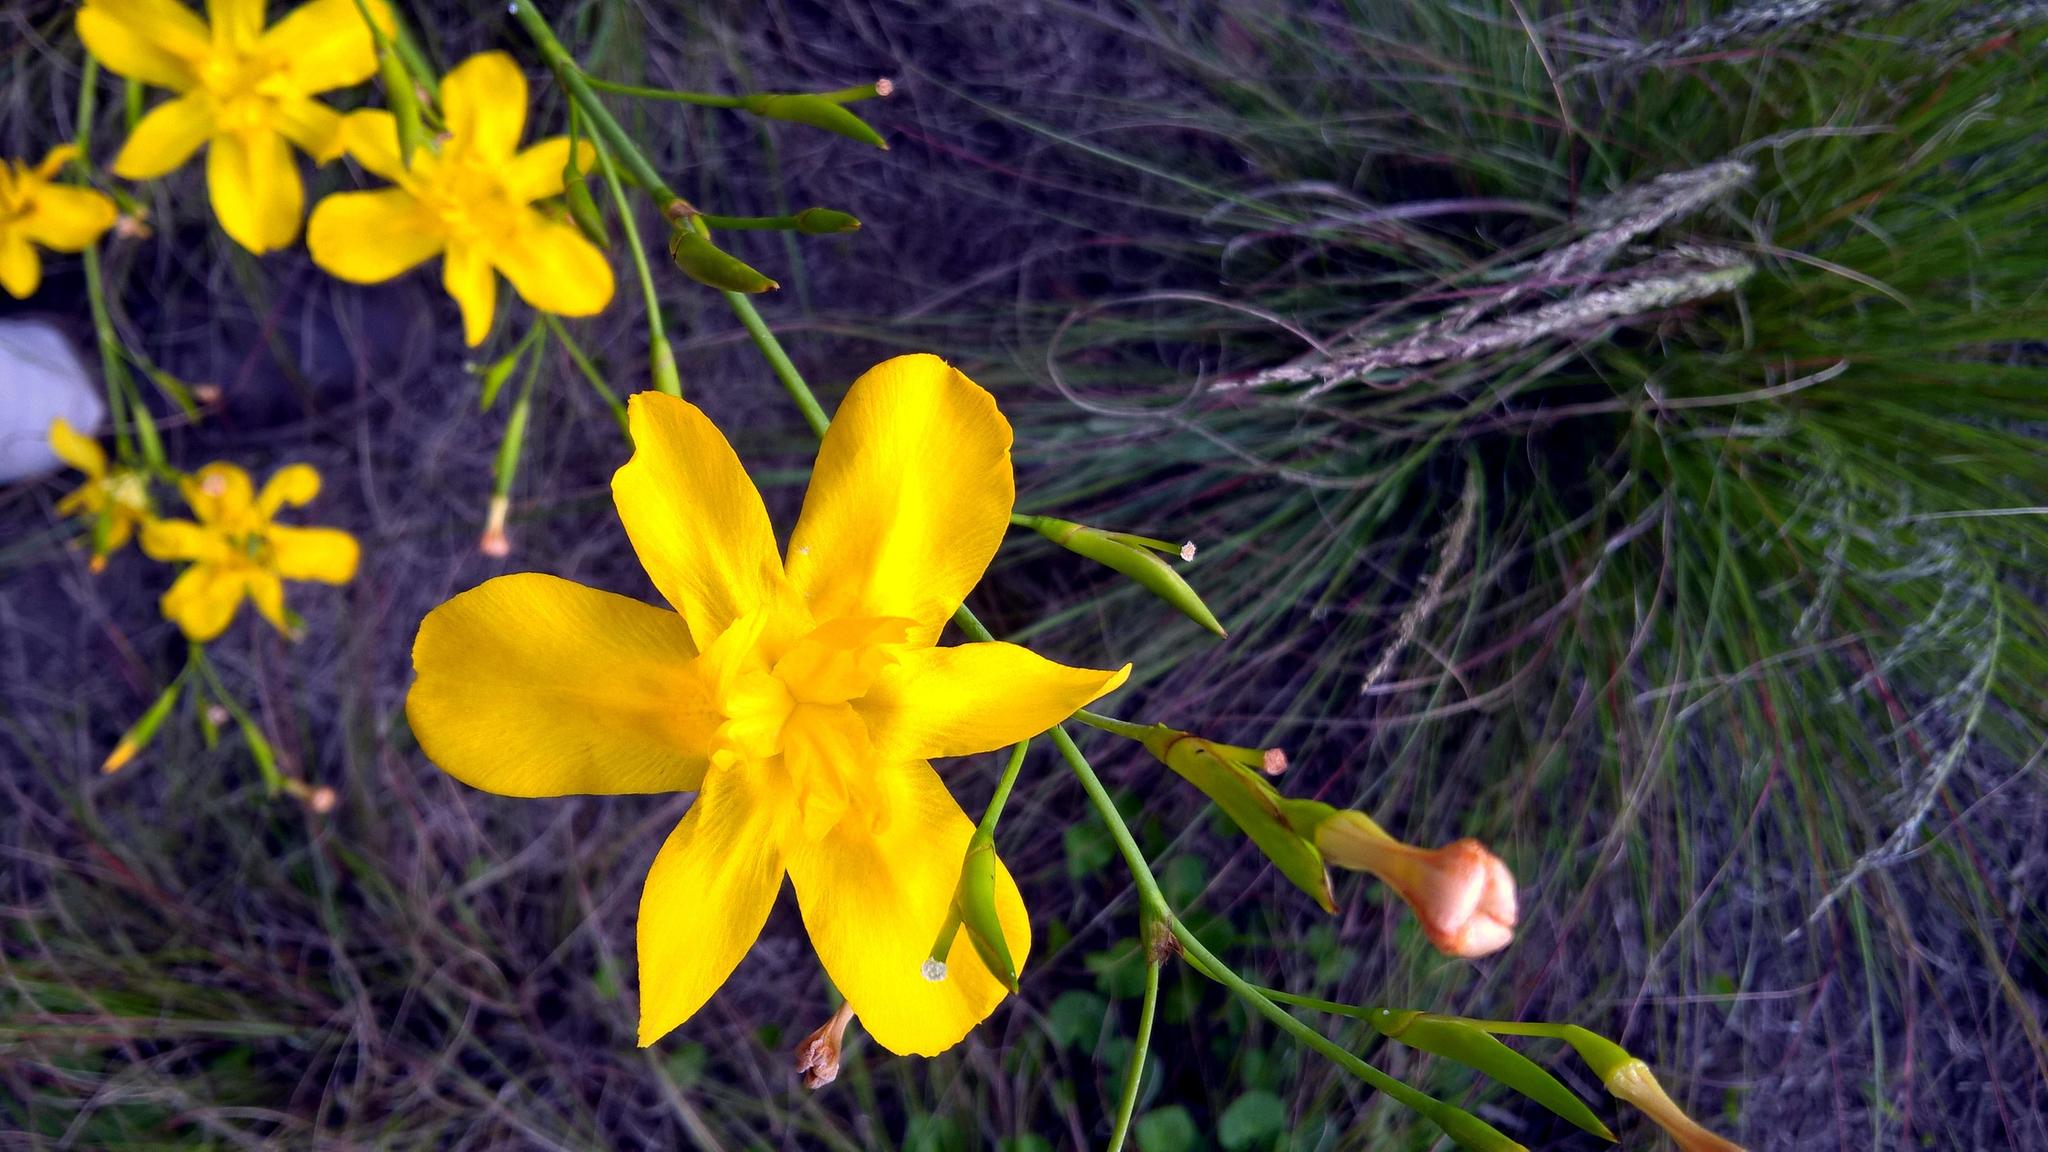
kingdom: Plantae
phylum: Tracheophyta
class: Liliopsida
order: Asparagales
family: Iridaceae
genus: Moraea
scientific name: Moraea ramosissima
